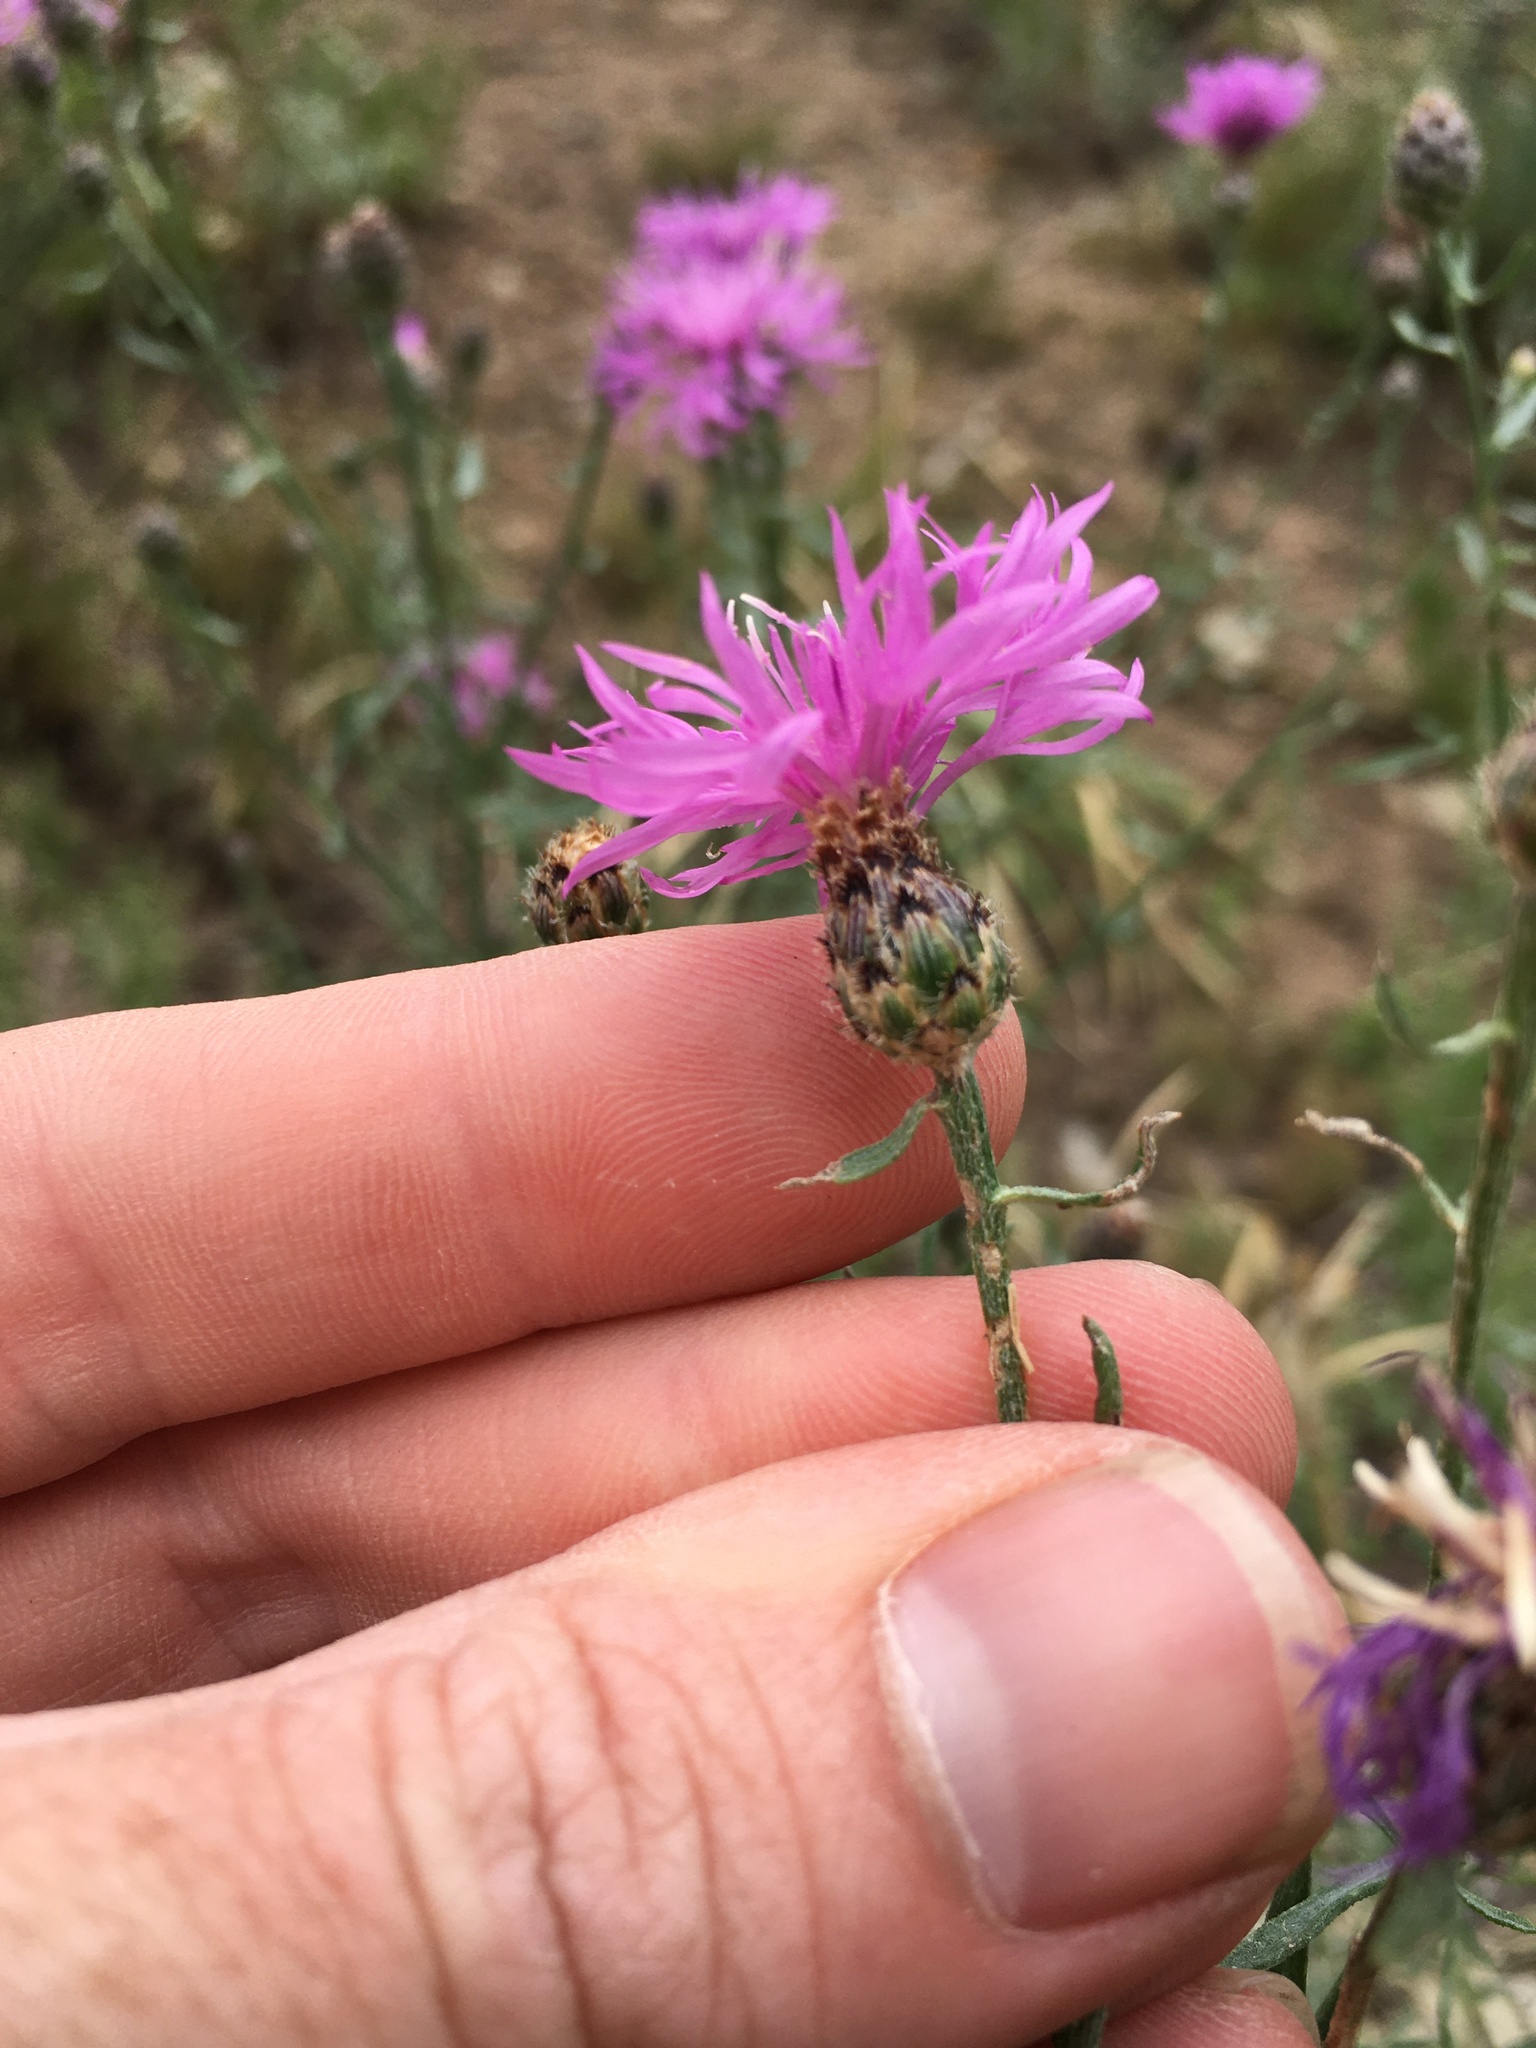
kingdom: Plantae
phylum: Tracheophyta
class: Magnoliopsida
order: Asterales
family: Asteraceae
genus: Centaurea
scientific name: Centaurea australis
